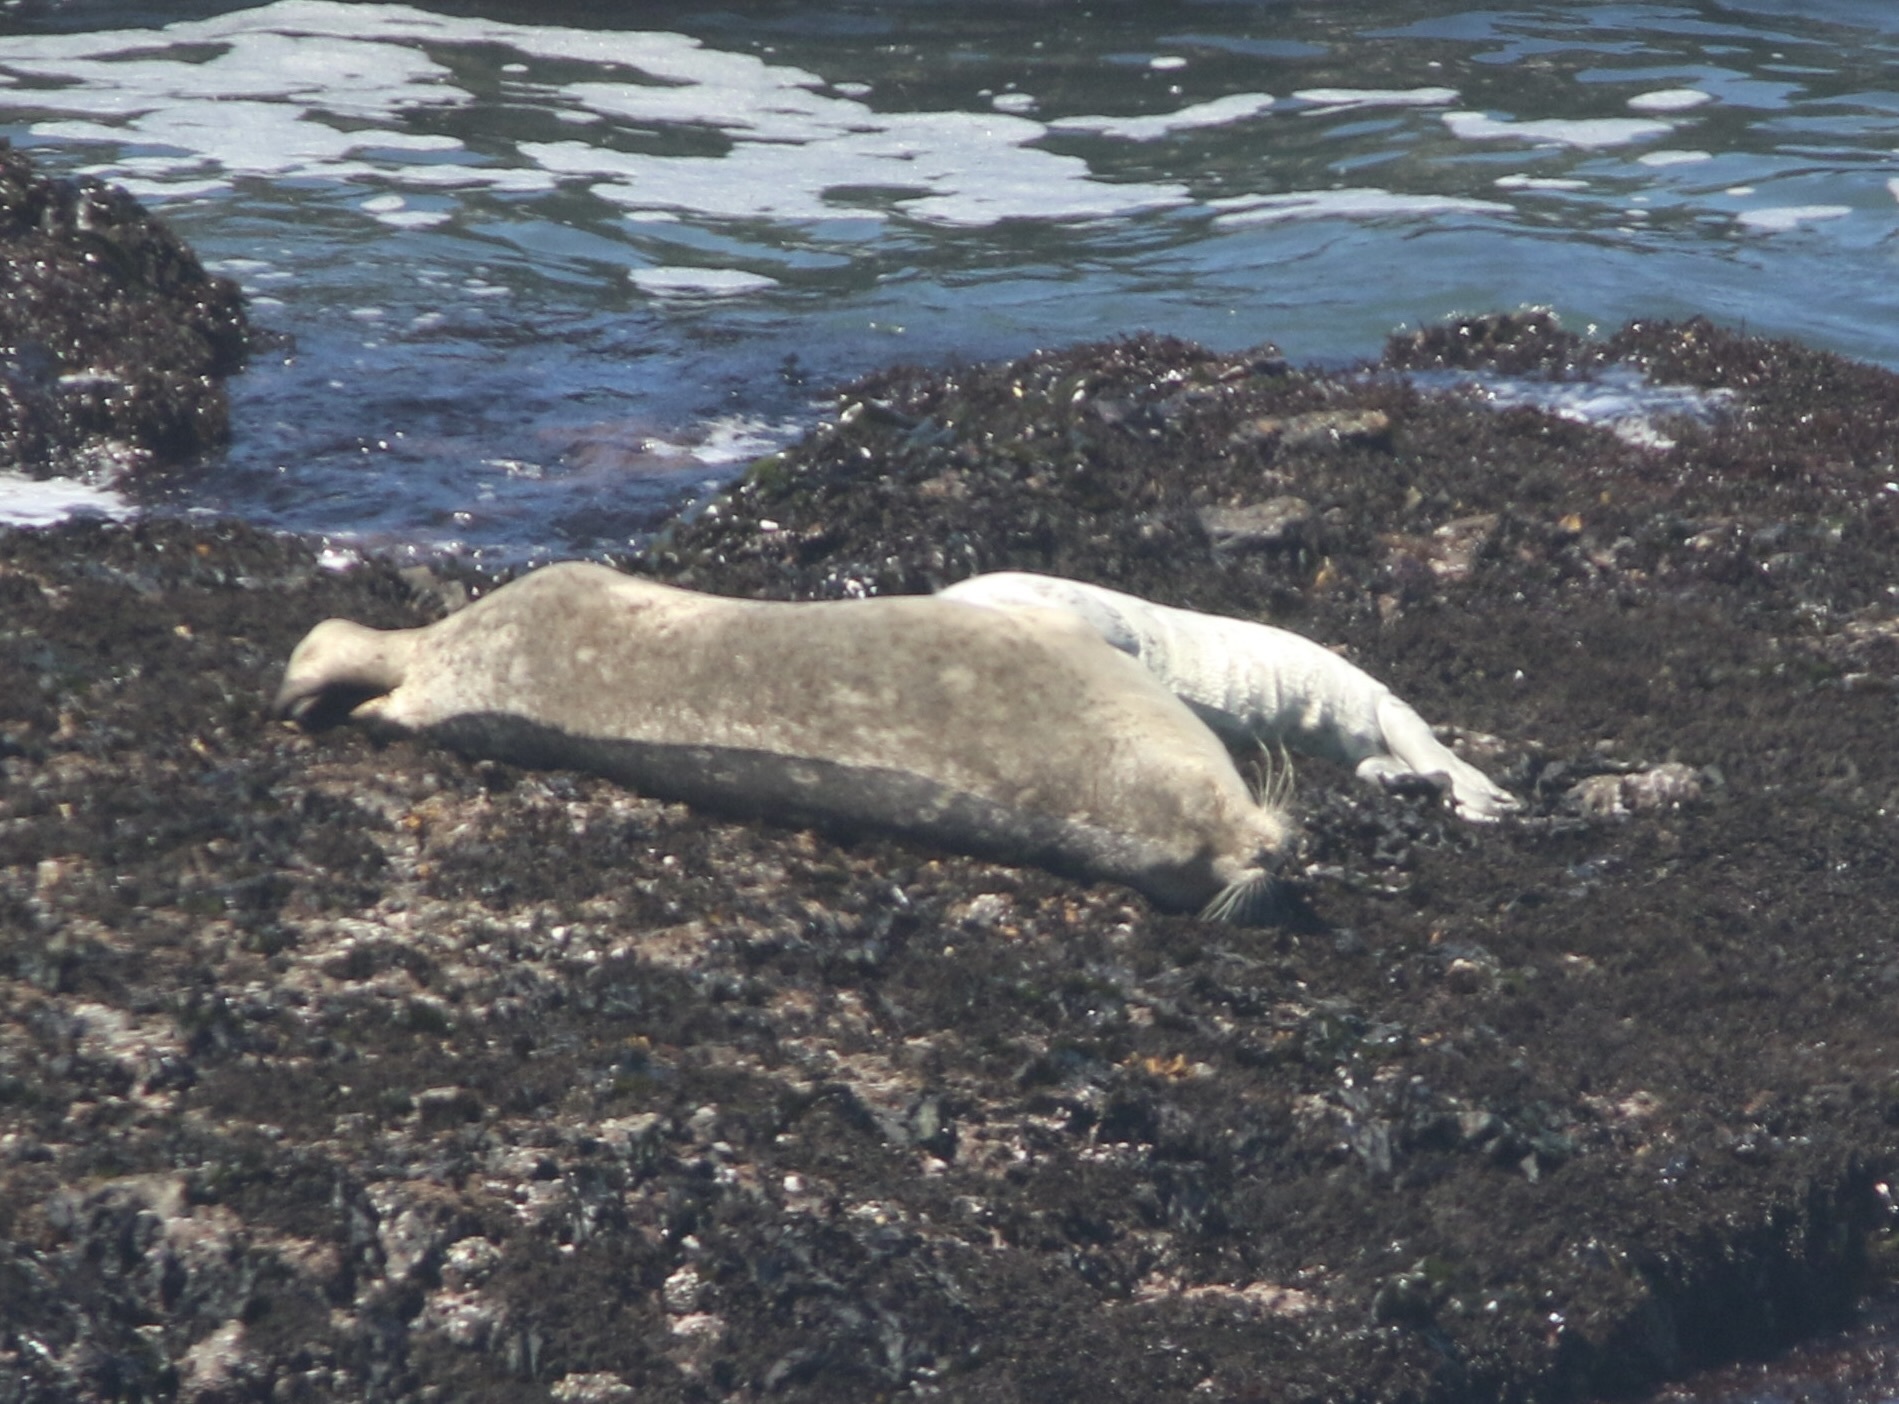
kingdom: Animalia
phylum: Chordata
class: Mammalia
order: Carnivora
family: Phocidae
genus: Phoca
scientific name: Phoca vitulina
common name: Harbor seal
